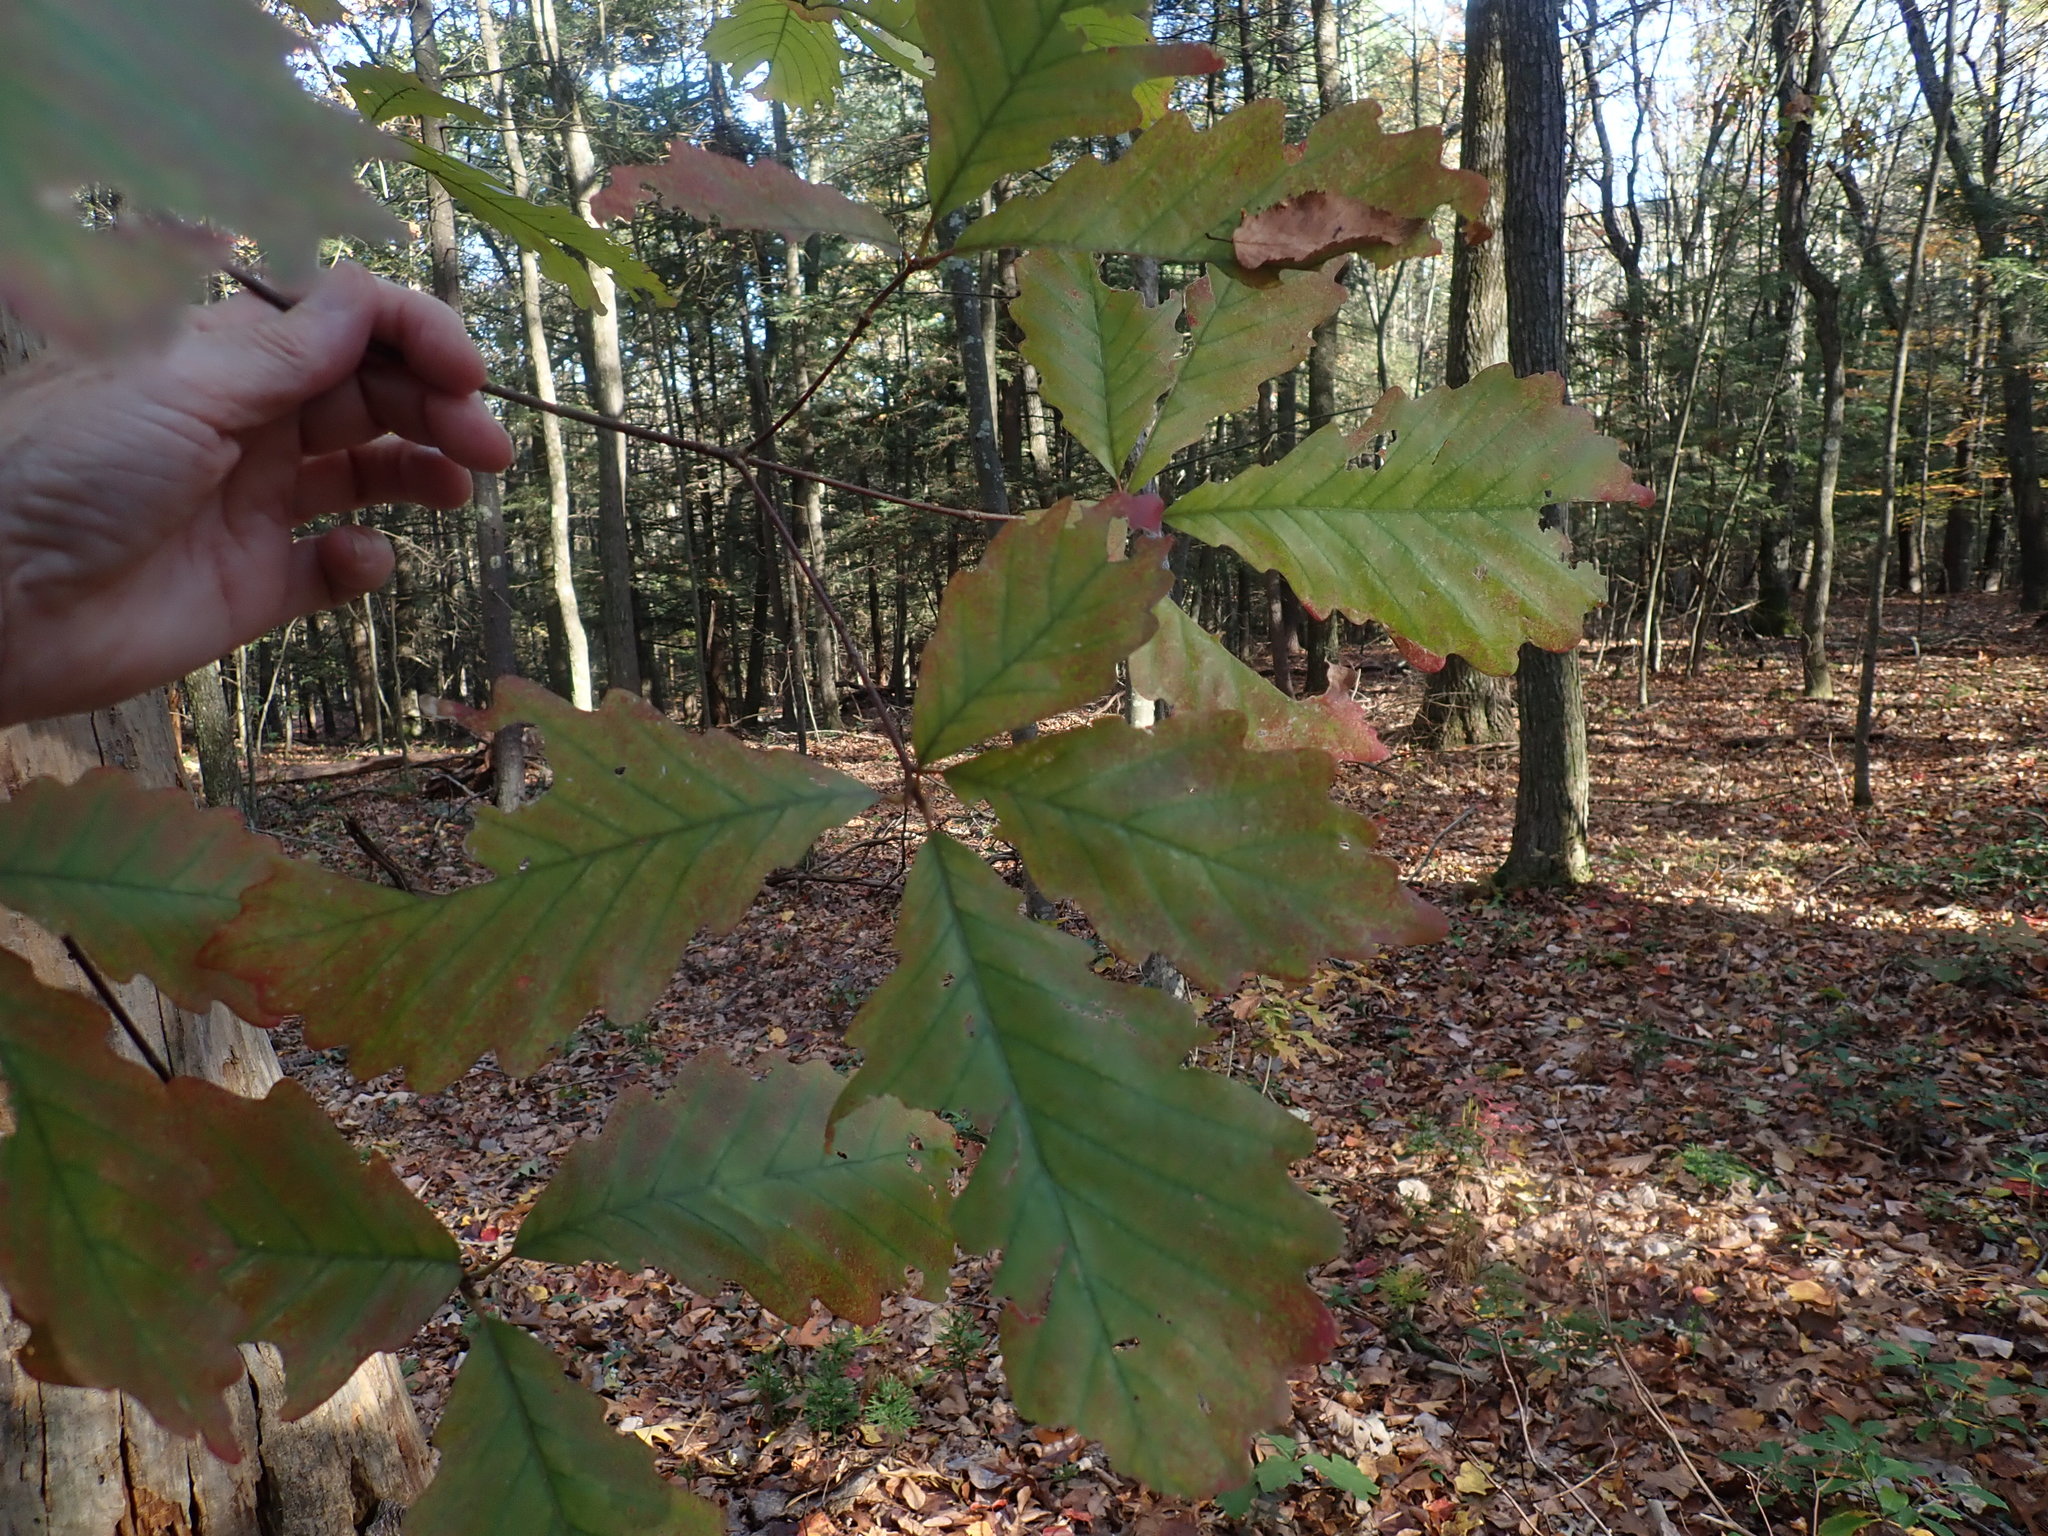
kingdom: Plantae
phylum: Tracheophyta
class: Magnoliopsida
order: Fagales
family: Fagaceae
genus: Quercus
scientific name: Quercus montana
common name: Chestnut oak
